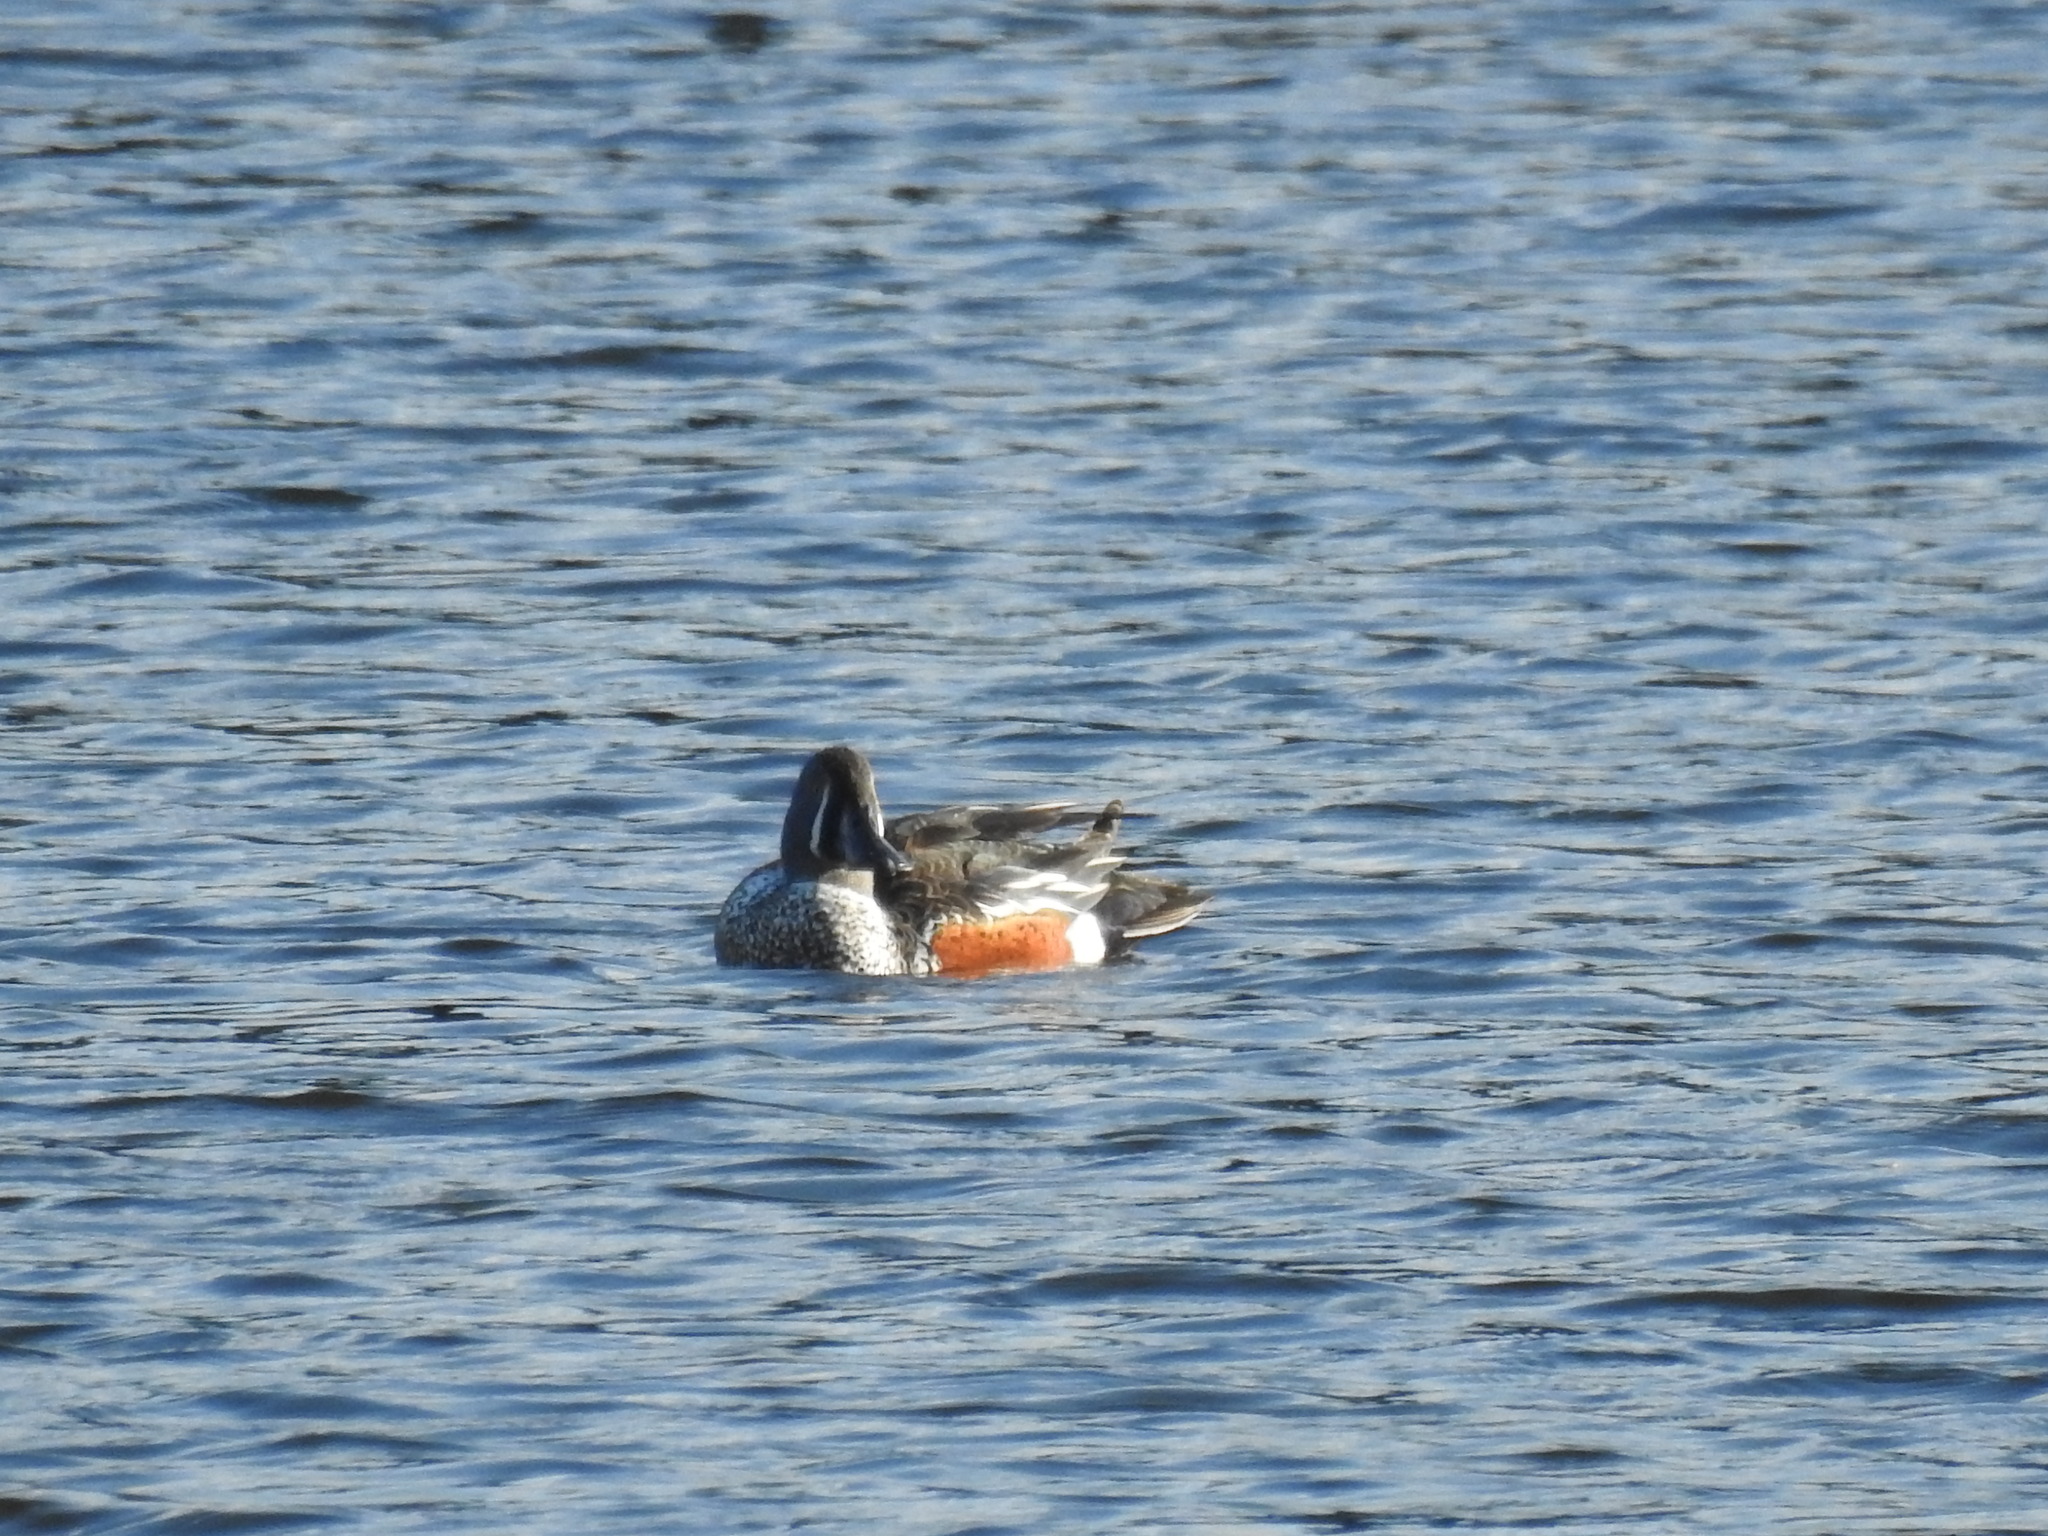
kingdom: Animalia
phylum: Chordata
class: Aves
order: Anseriformes
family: Anatidae
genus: Spatula
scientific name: Spatula rhynchotis
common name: Australian shoveler
